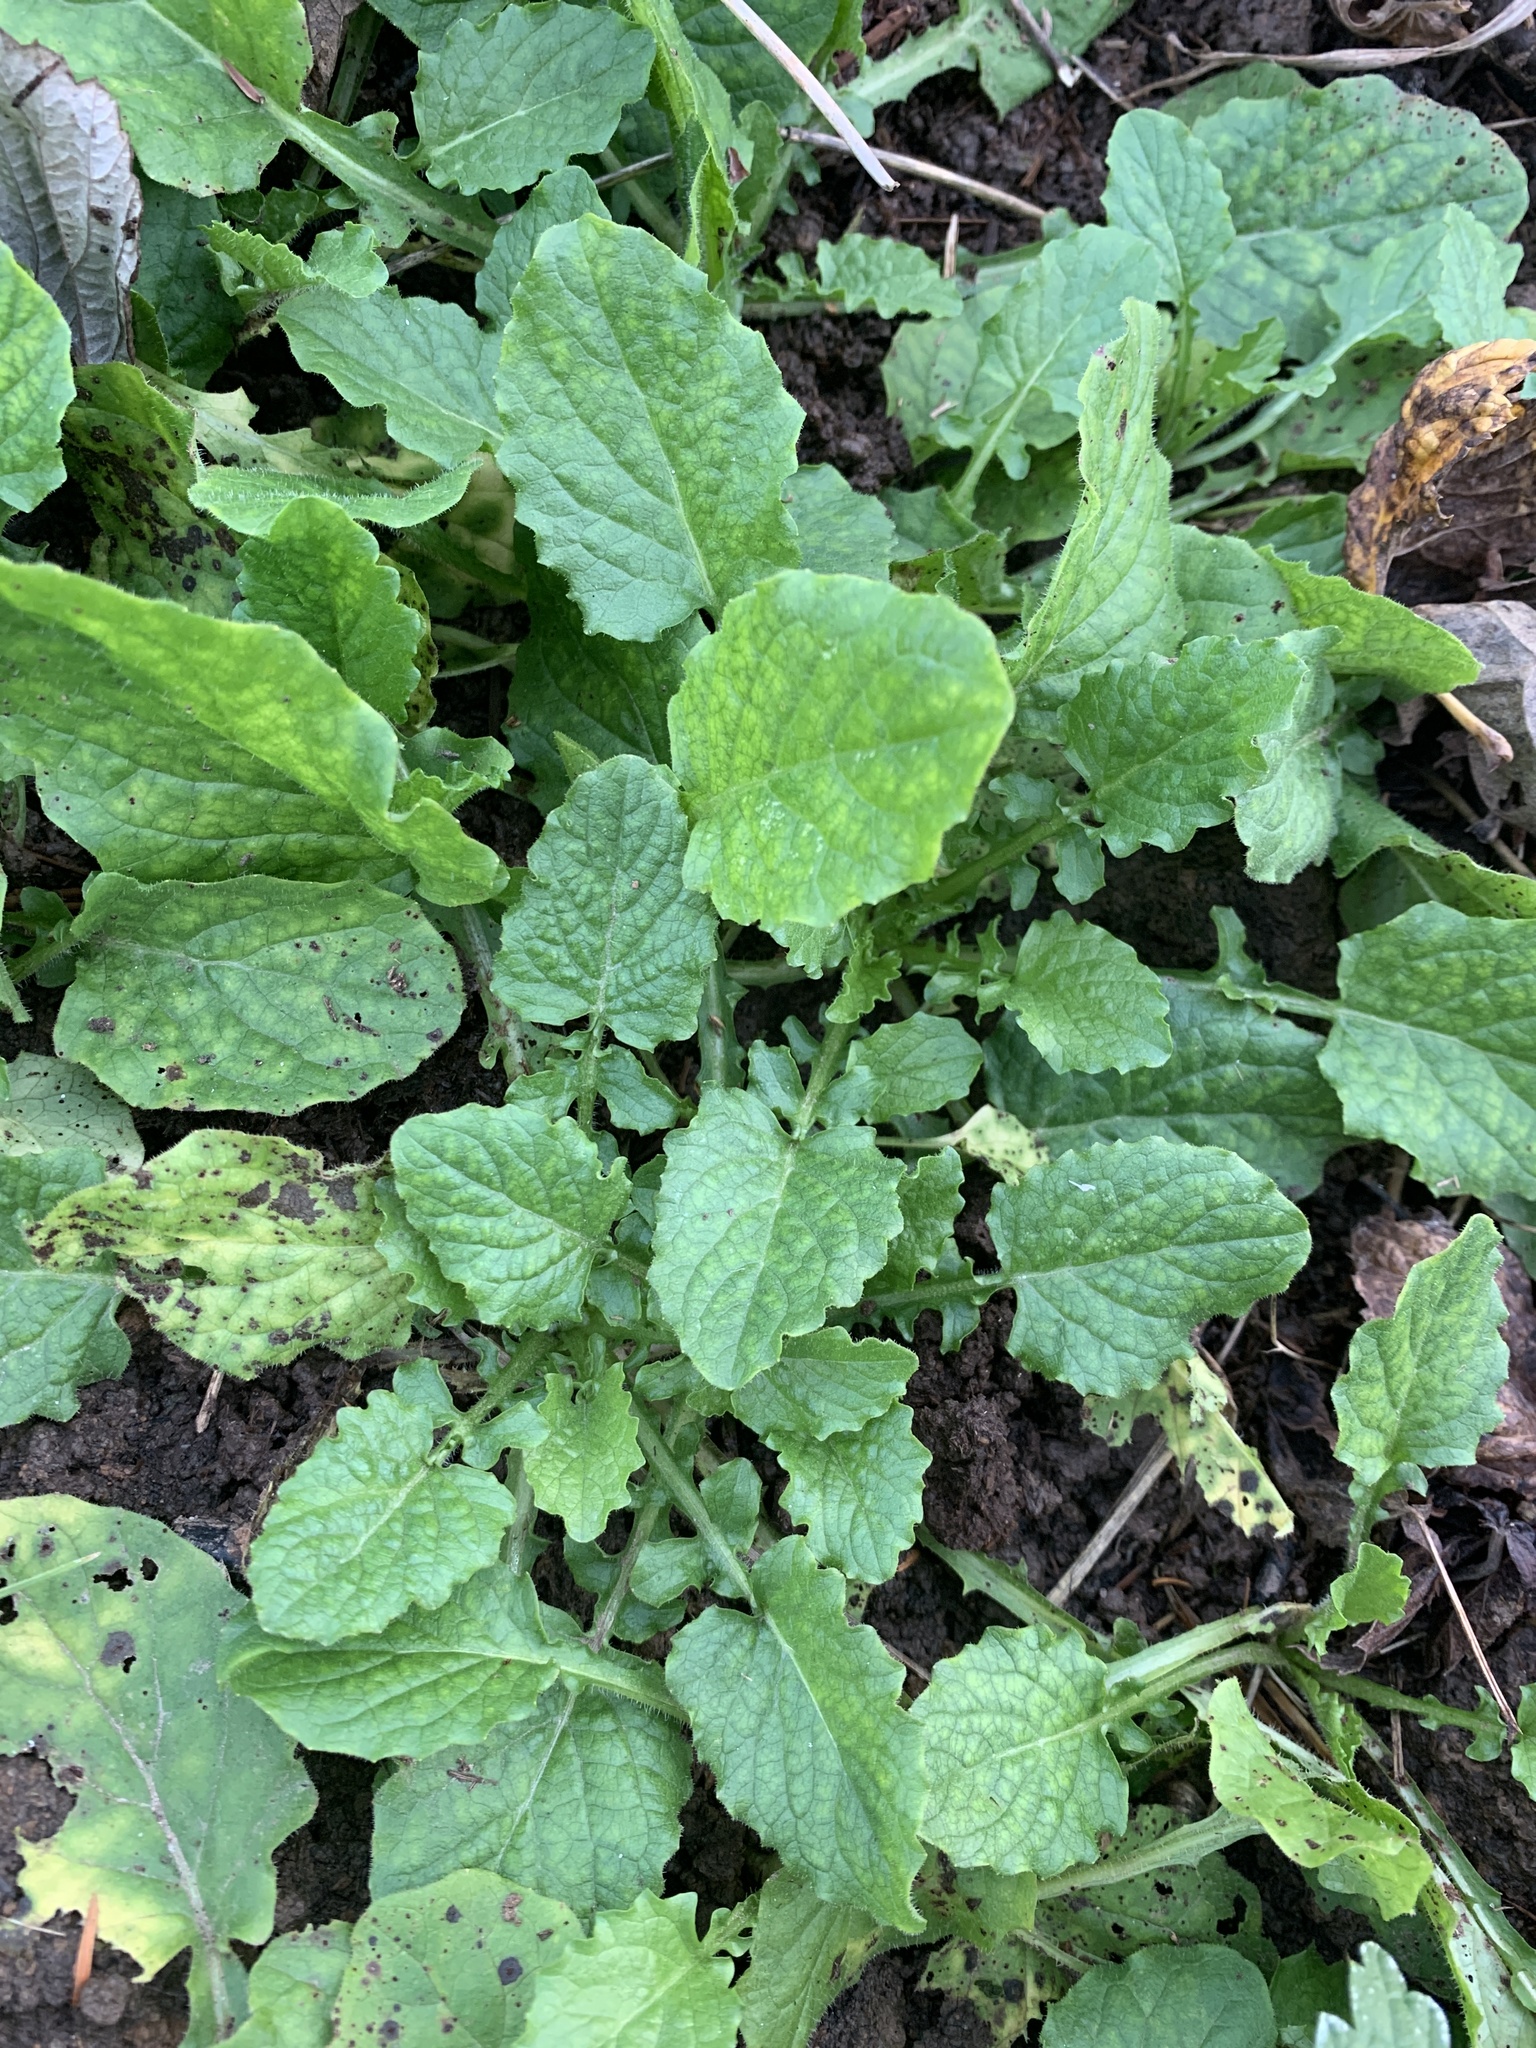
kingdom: Plantae
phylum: Tracheophyta
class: Magnoliopsida
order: Asterales
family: Asteraceae
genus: Lapsana
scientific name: Lapsana communis
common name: Nipplewort
